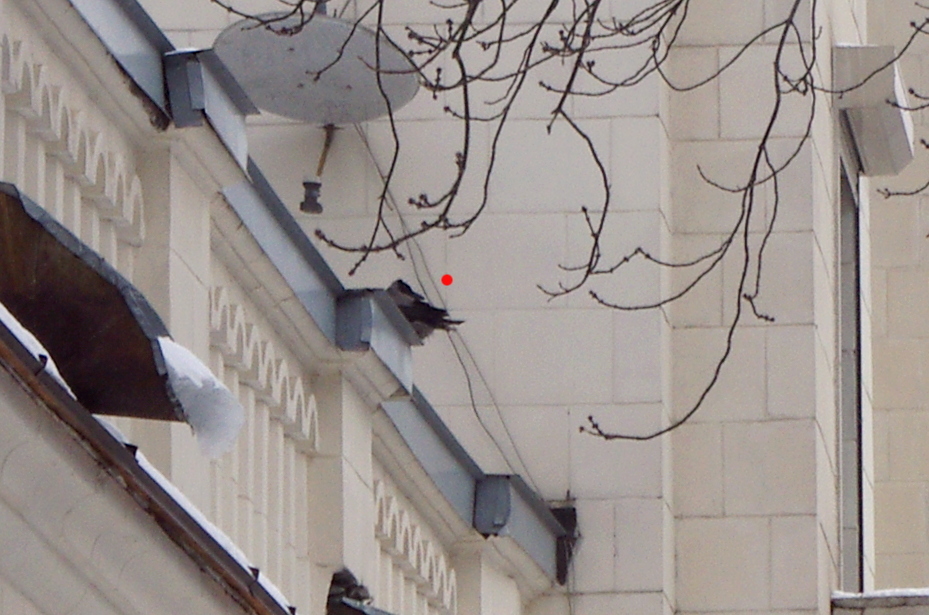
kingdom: Animalia
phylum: Chordata
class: Aves
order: Passeriformes
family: Corvidae
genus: Corvus
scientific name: Corvus cornix
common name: Hooded crow
